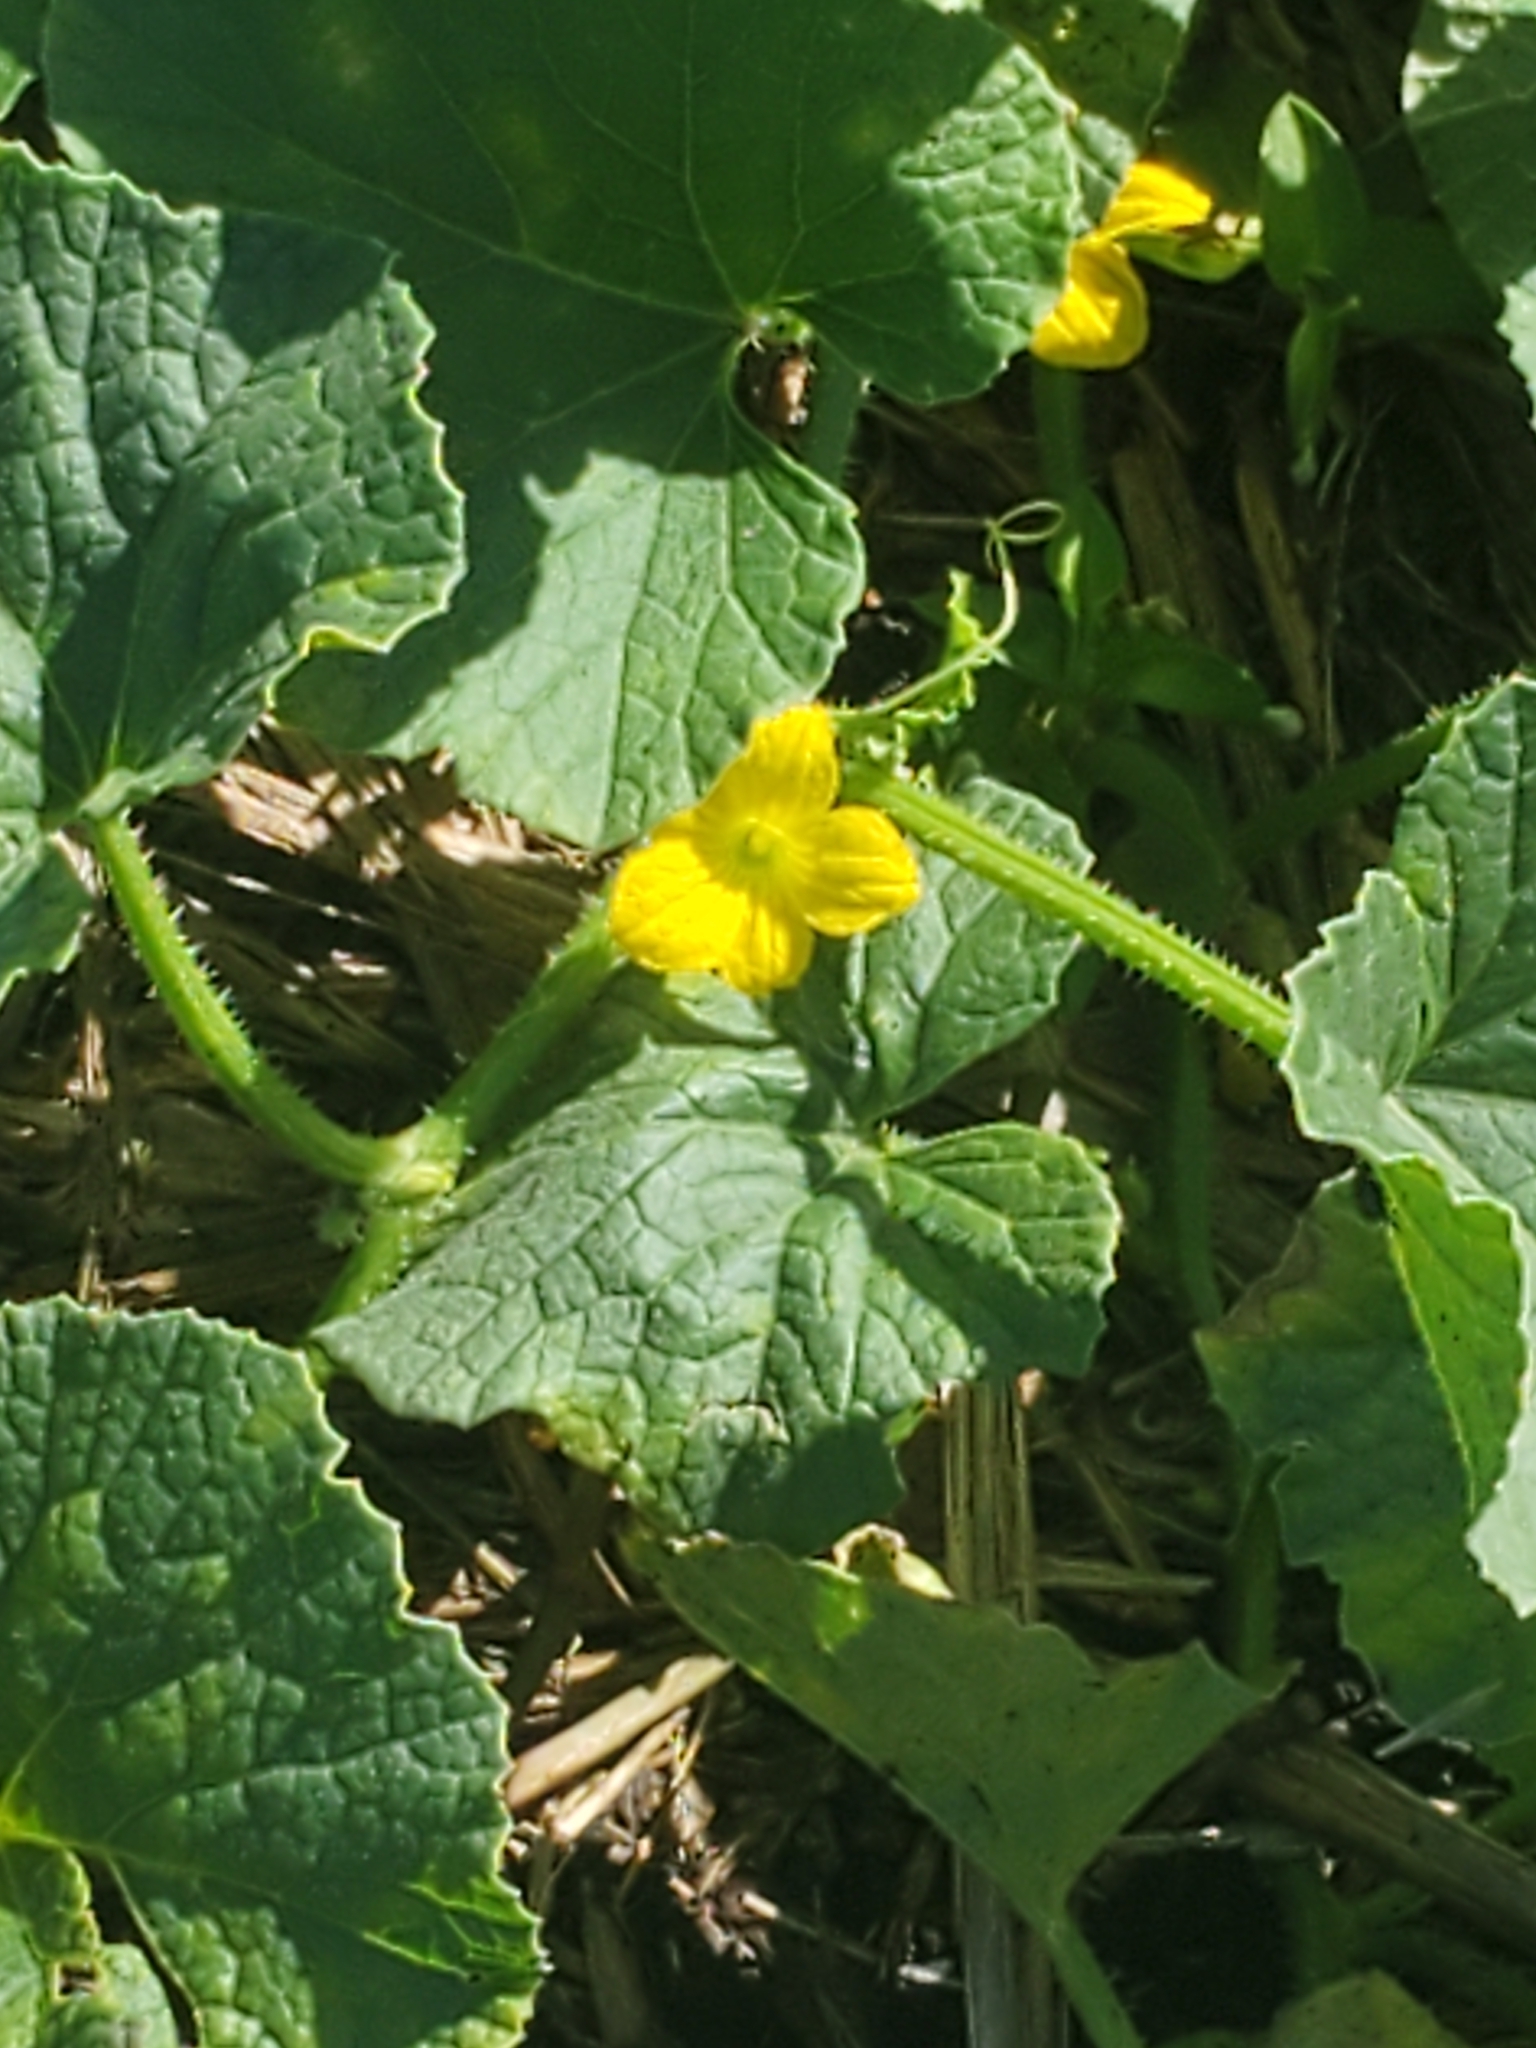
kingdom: Plantae
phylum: Tracheophyta
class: Magnoliopsida
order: Cucurbitales
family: Cucurbitaceae
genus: Cucumis
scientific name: Cucumis melo
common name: Melon
